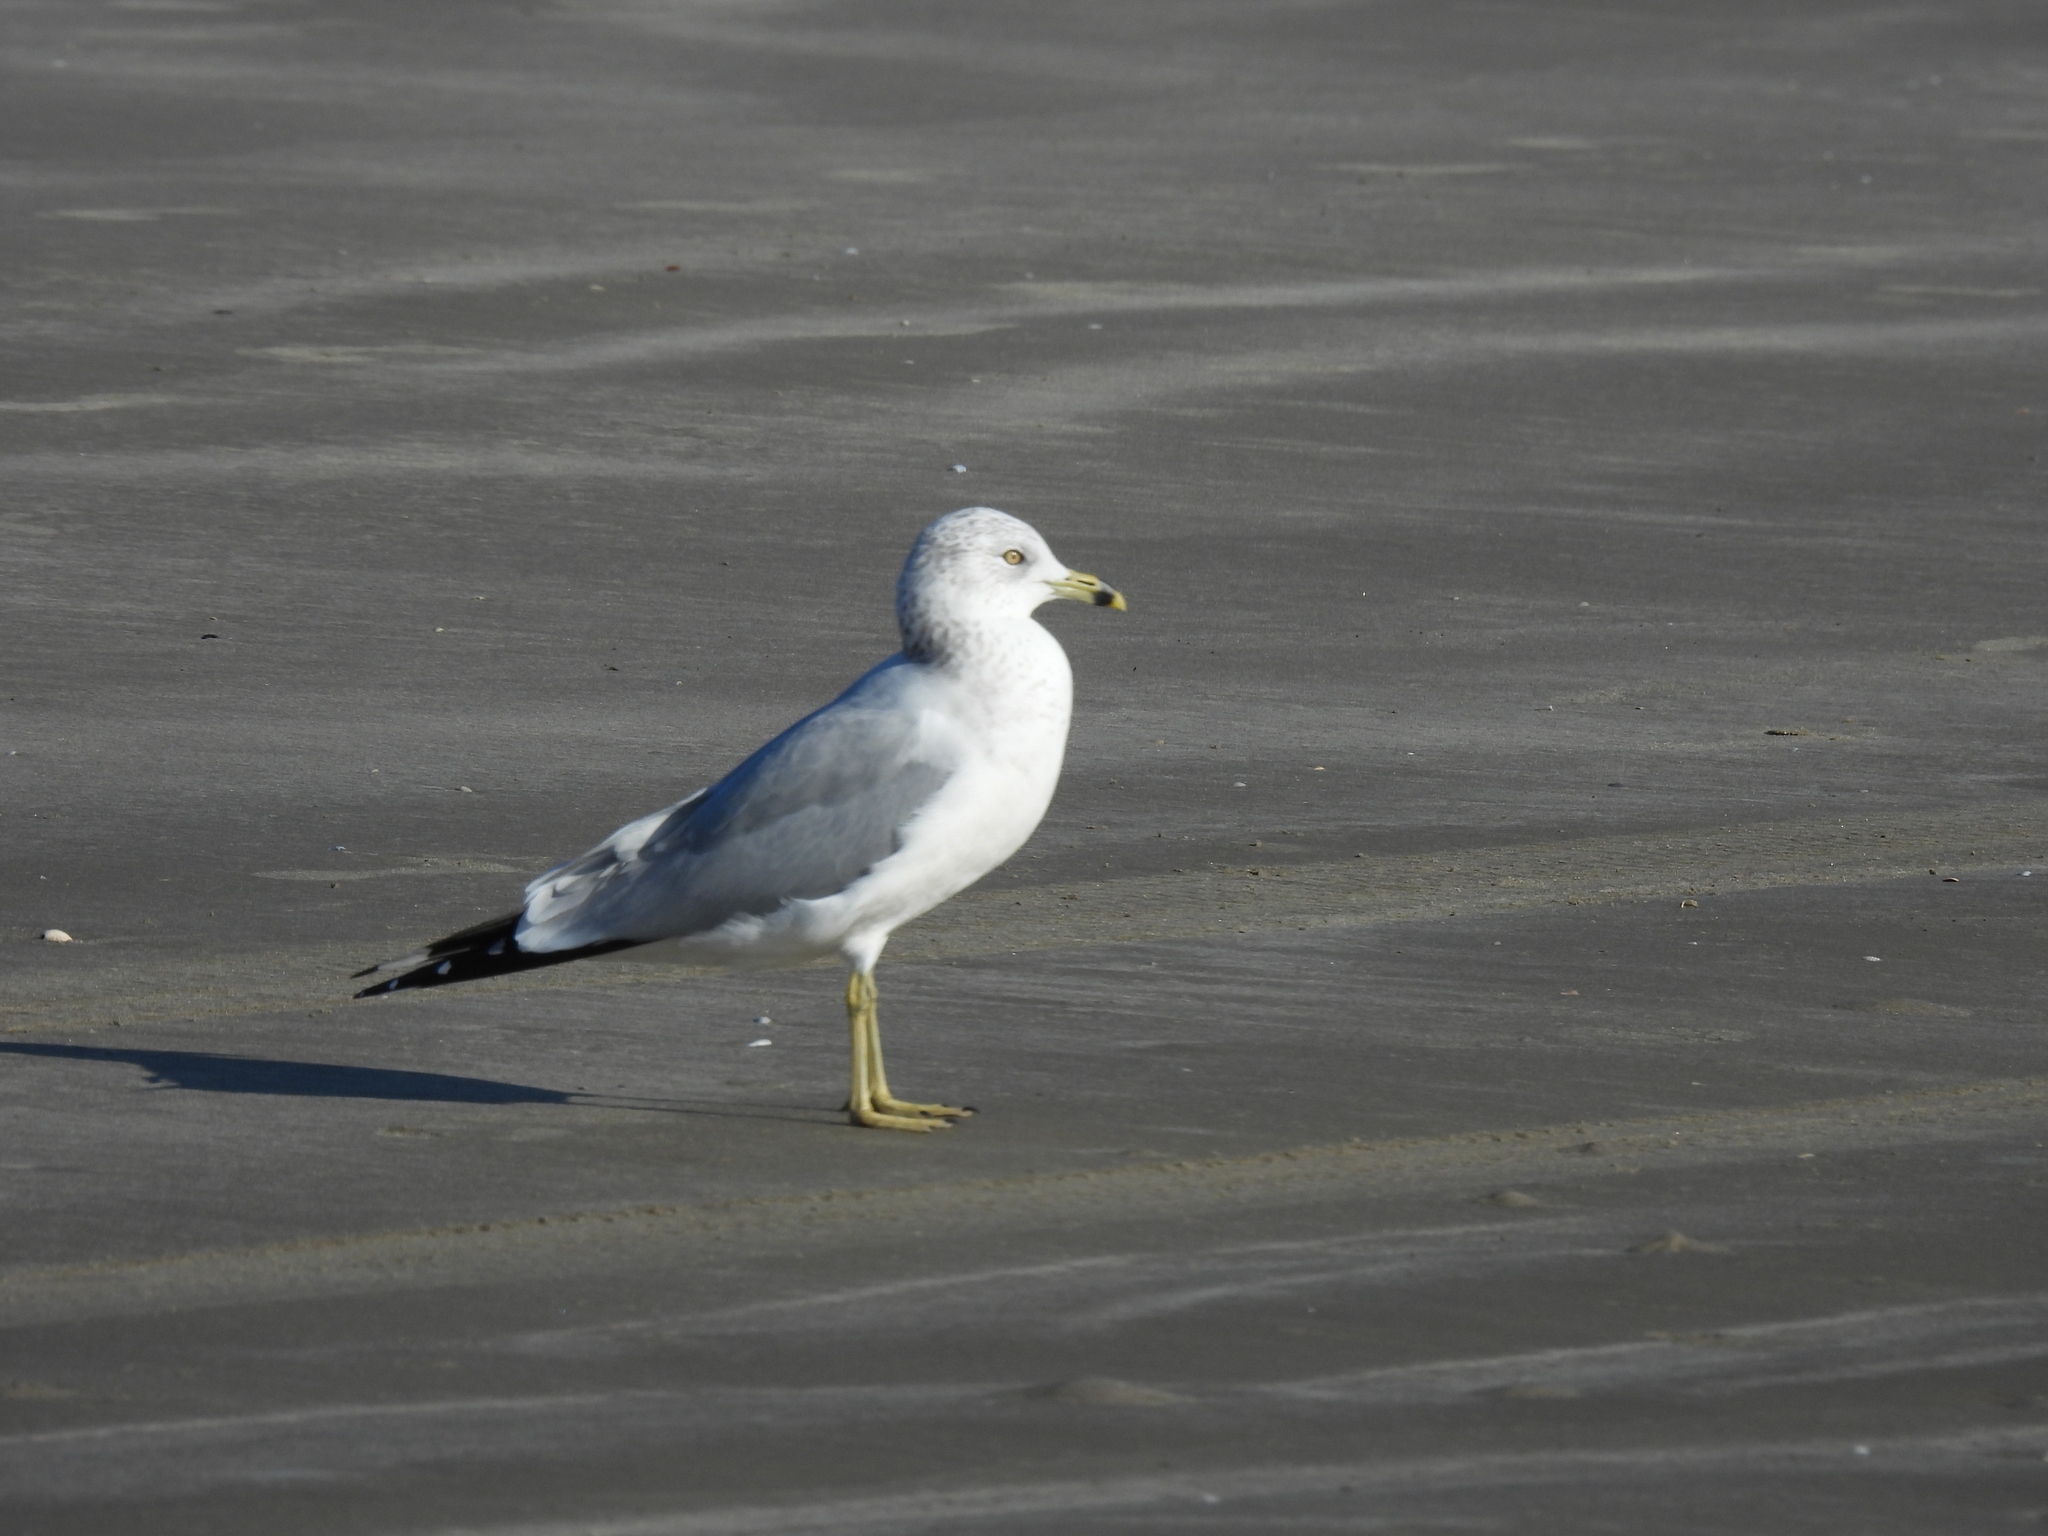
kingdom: Animalia
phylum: Chordata
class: Aves
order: Charadriiformes
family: Laridae
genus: Larus
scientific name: Larus delawarensis
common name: Ring-billed gull
